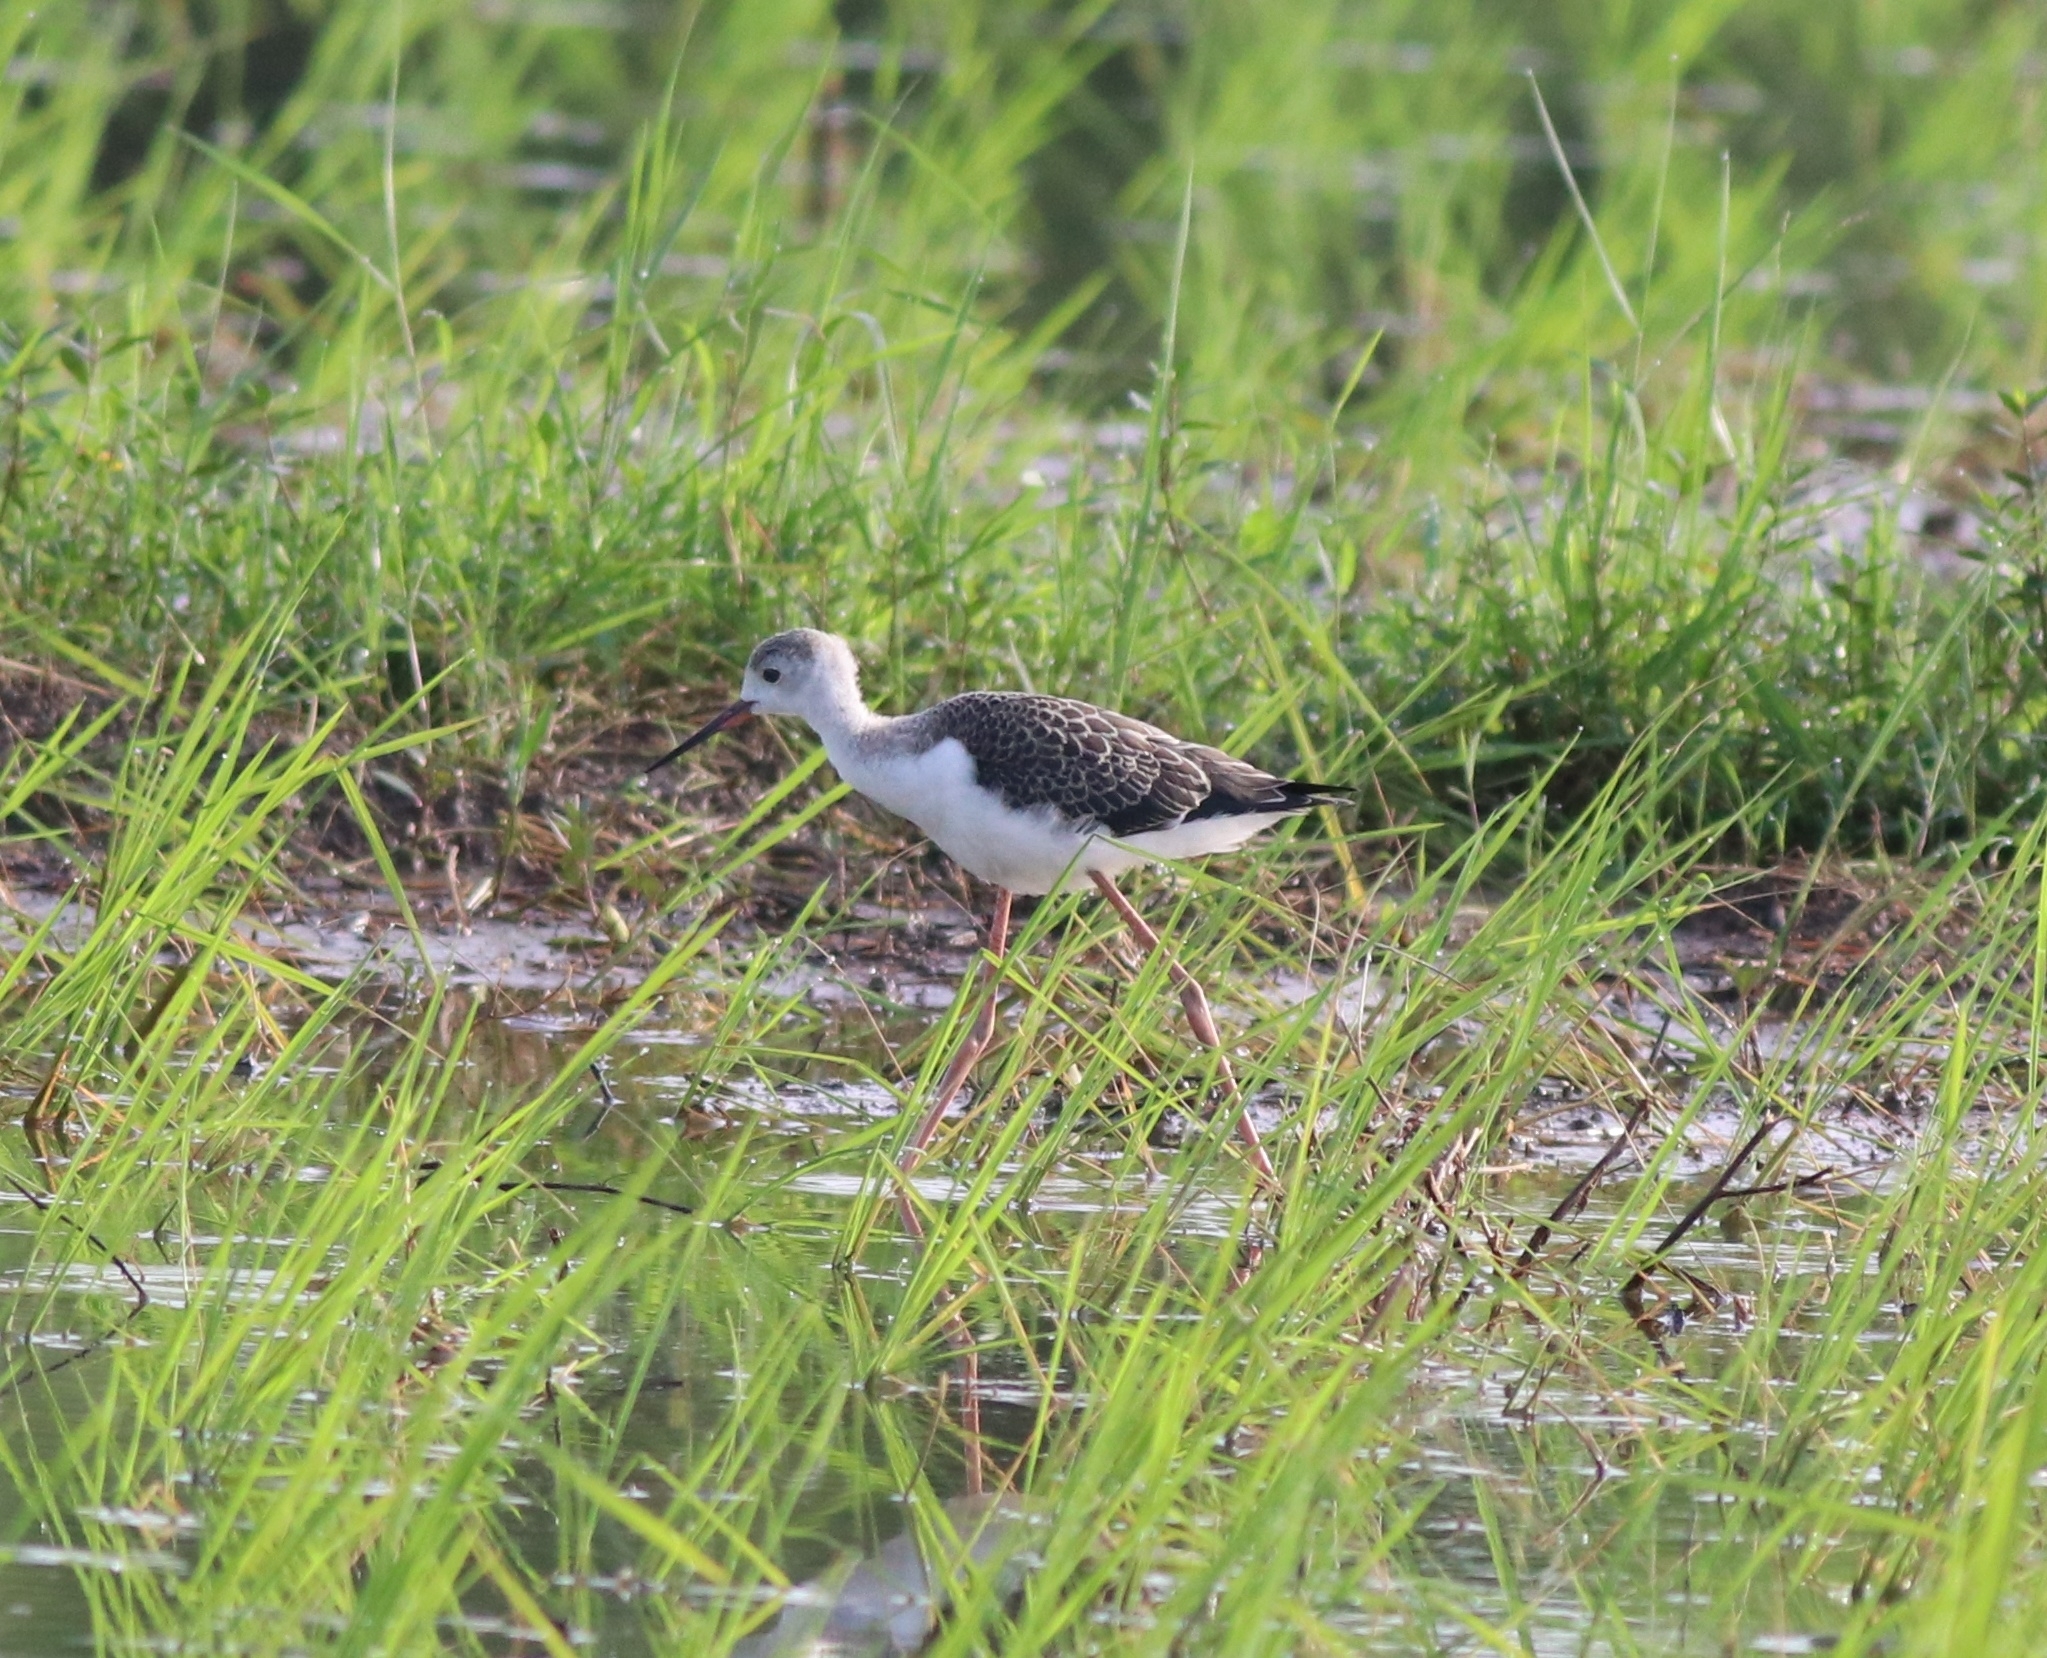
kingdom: Animalia
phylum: Chordata
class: Aves
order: Charadriiformes
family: Recurvirostridae
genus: Himantopus
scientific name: Himantopus himantopus
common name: Black-winged stilt
